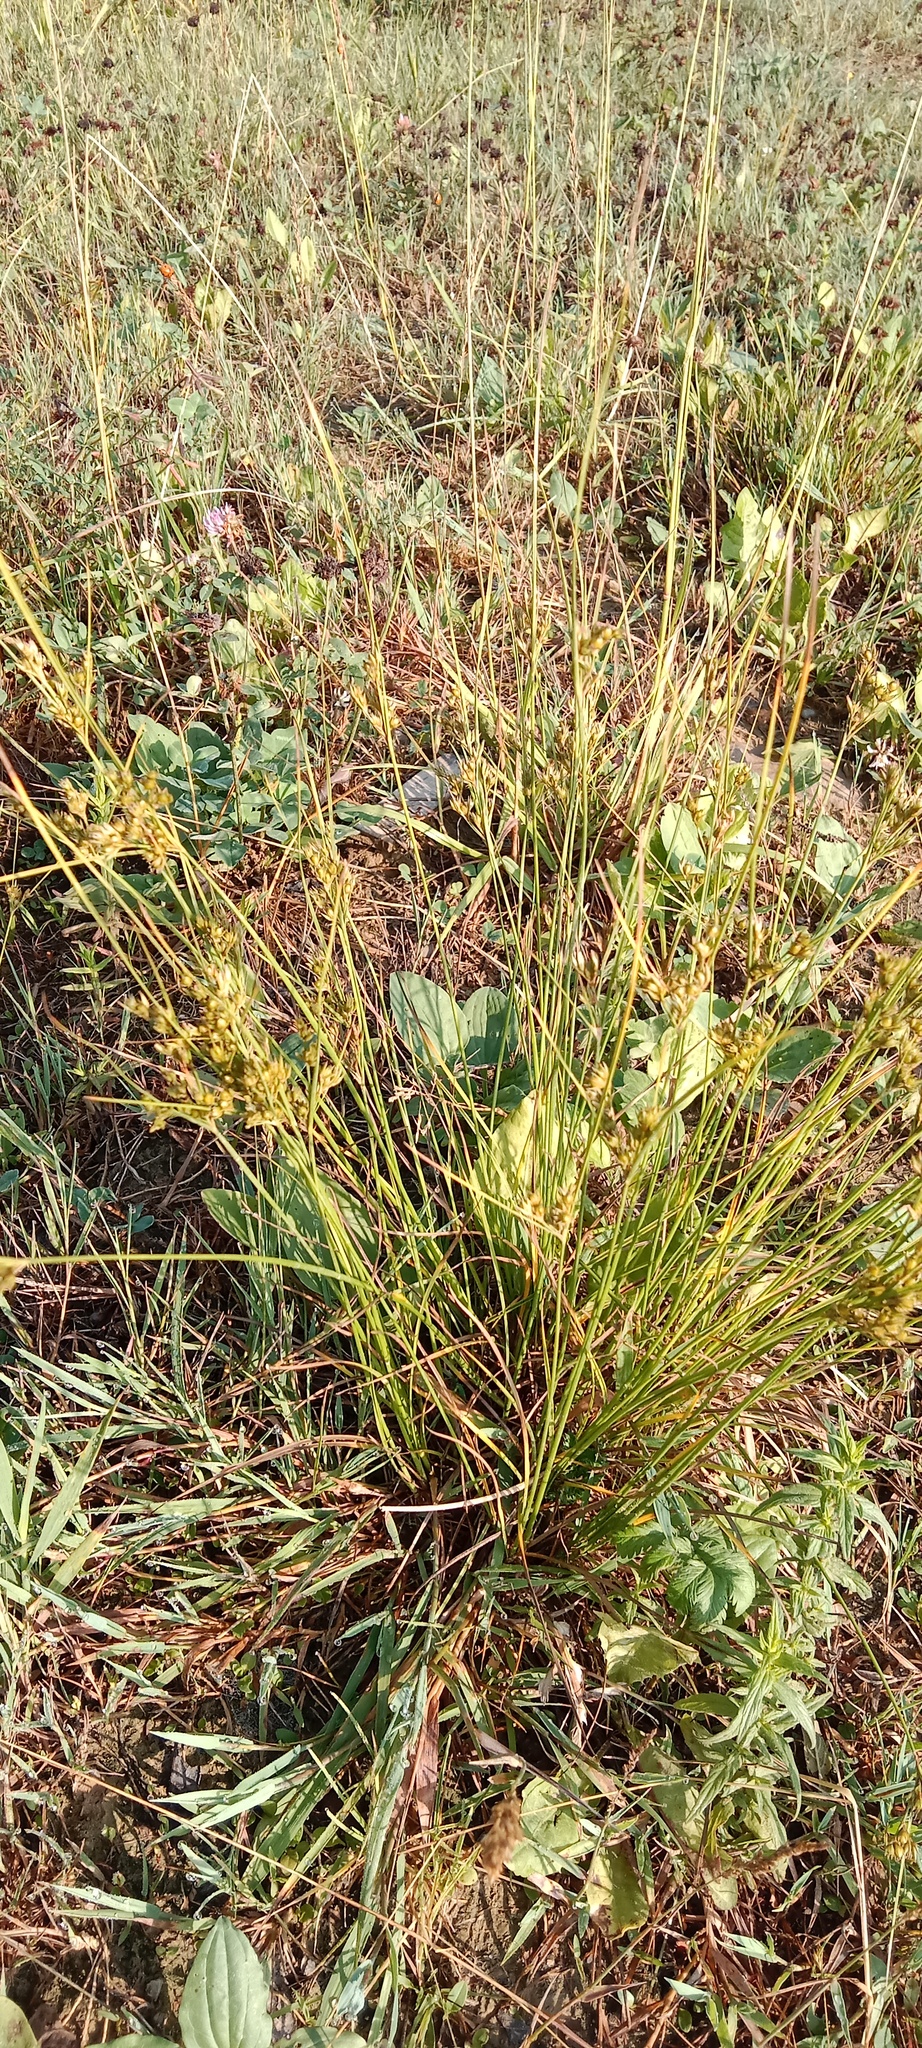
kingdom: Plantae
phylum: Tracheophyta
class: Liliopsida
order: Poales
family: Juncaceae
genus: Juncus
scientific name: Juncus tenuis
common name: Slender rush
